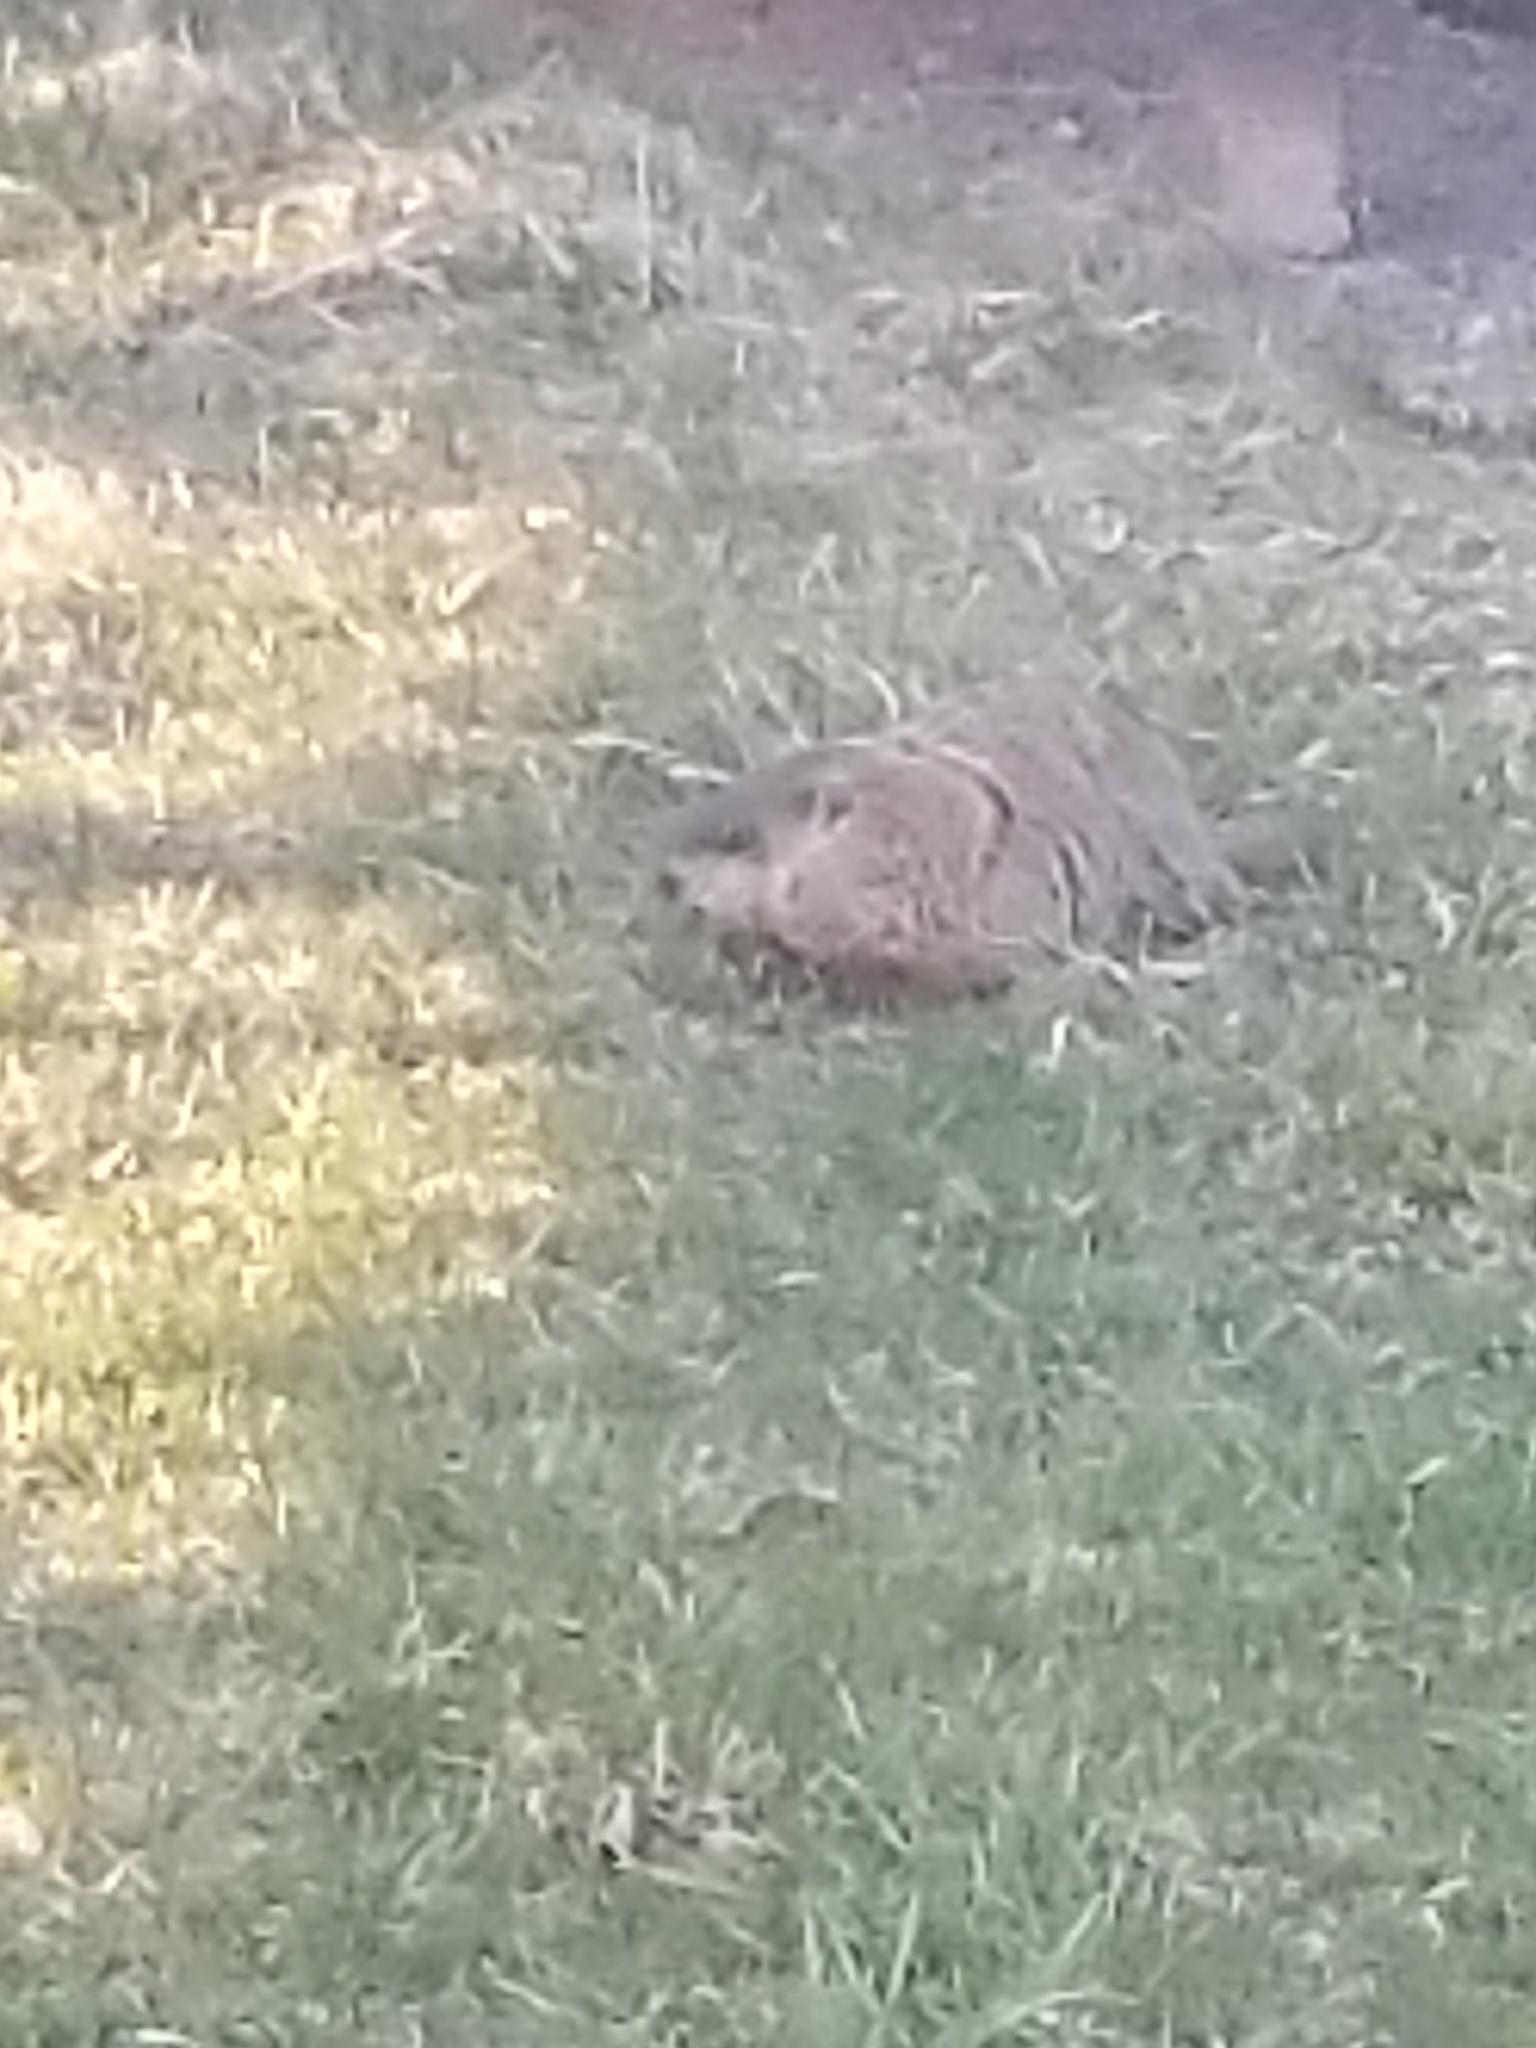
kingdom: Animalia
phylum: Chordata
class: Mammalia
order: Rodentia
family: Sciuridae
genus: Marmota
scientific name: Marmota monax
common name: Groundhog
